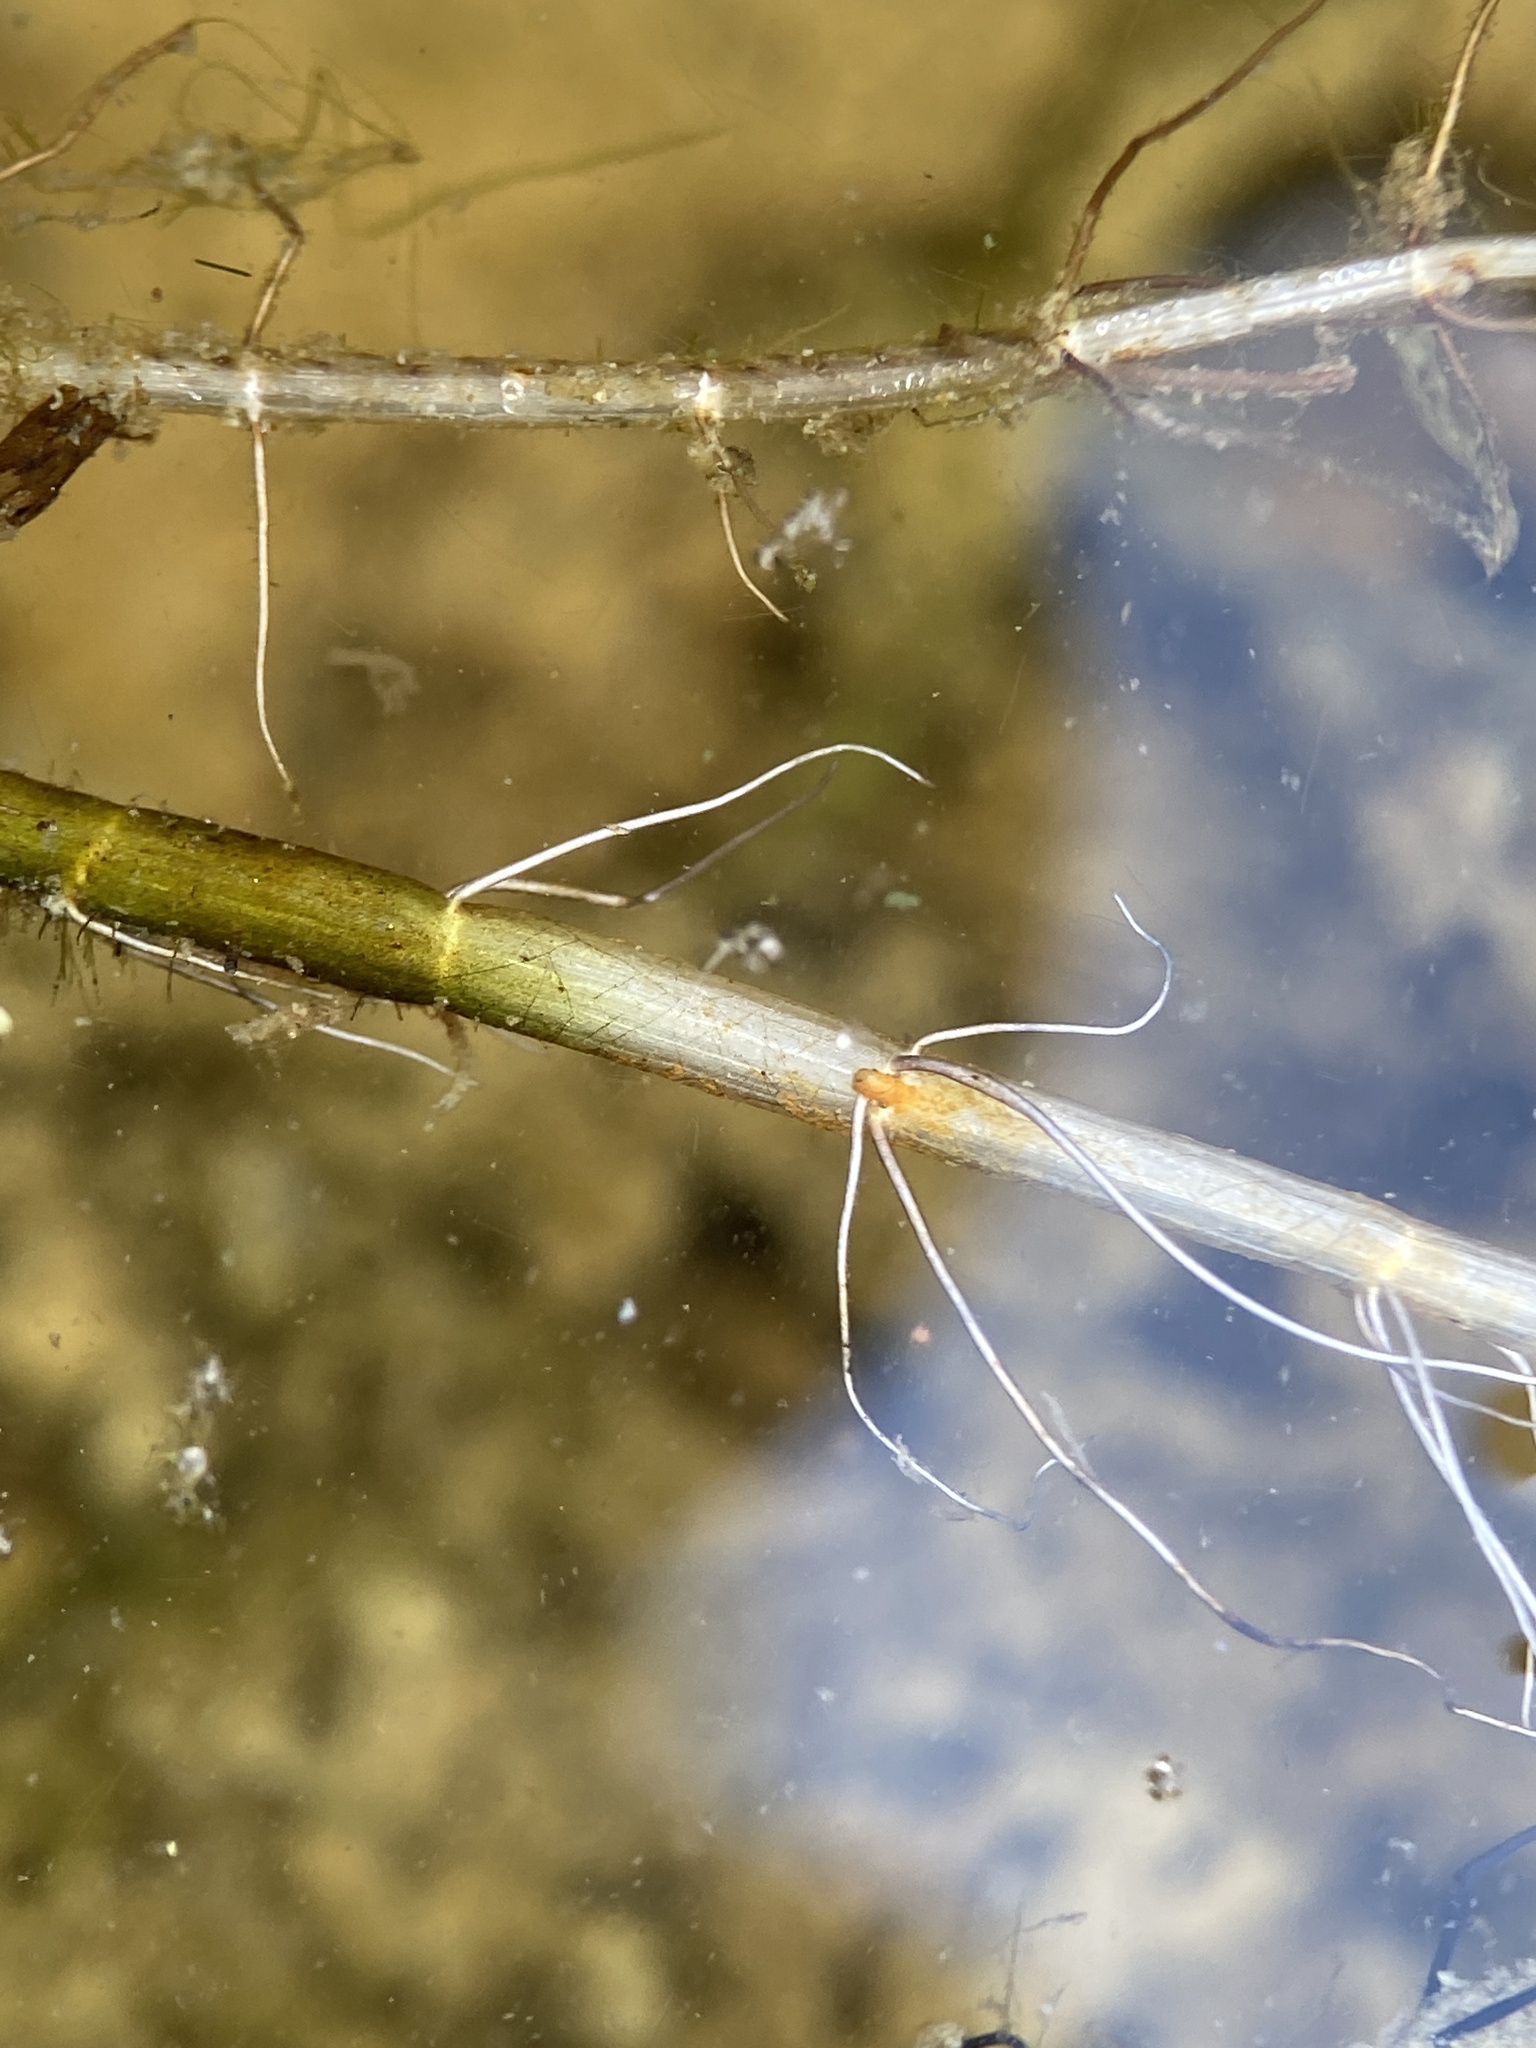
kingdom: Plantae
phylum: Tracheophyta
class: Magnoliopsida
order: Saxifragales
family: Haloragaceae
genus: Myriophyllum
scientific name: Myriophyllum tenellum
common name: Slender water-milfoil
